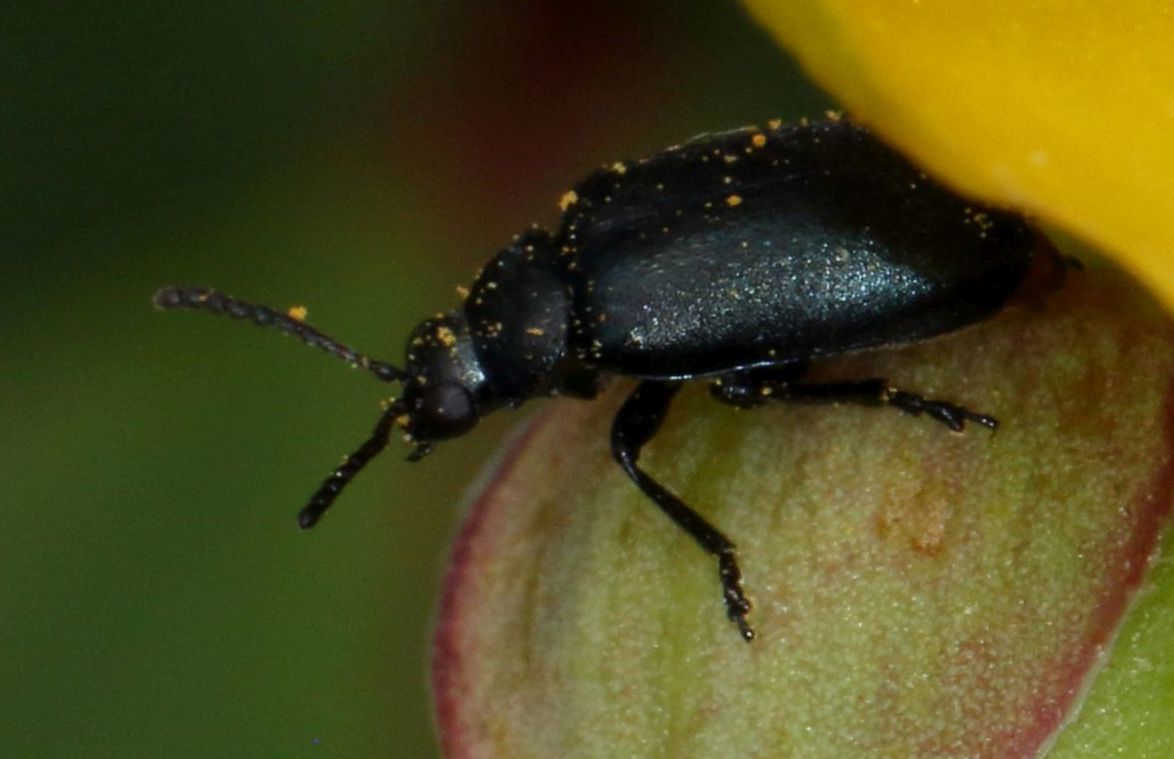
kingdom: Animalia
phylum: Arthropoda
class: Insecta
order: Coleoptera
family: Chrysomelidae
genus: Gastrida
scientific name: Gastrida
